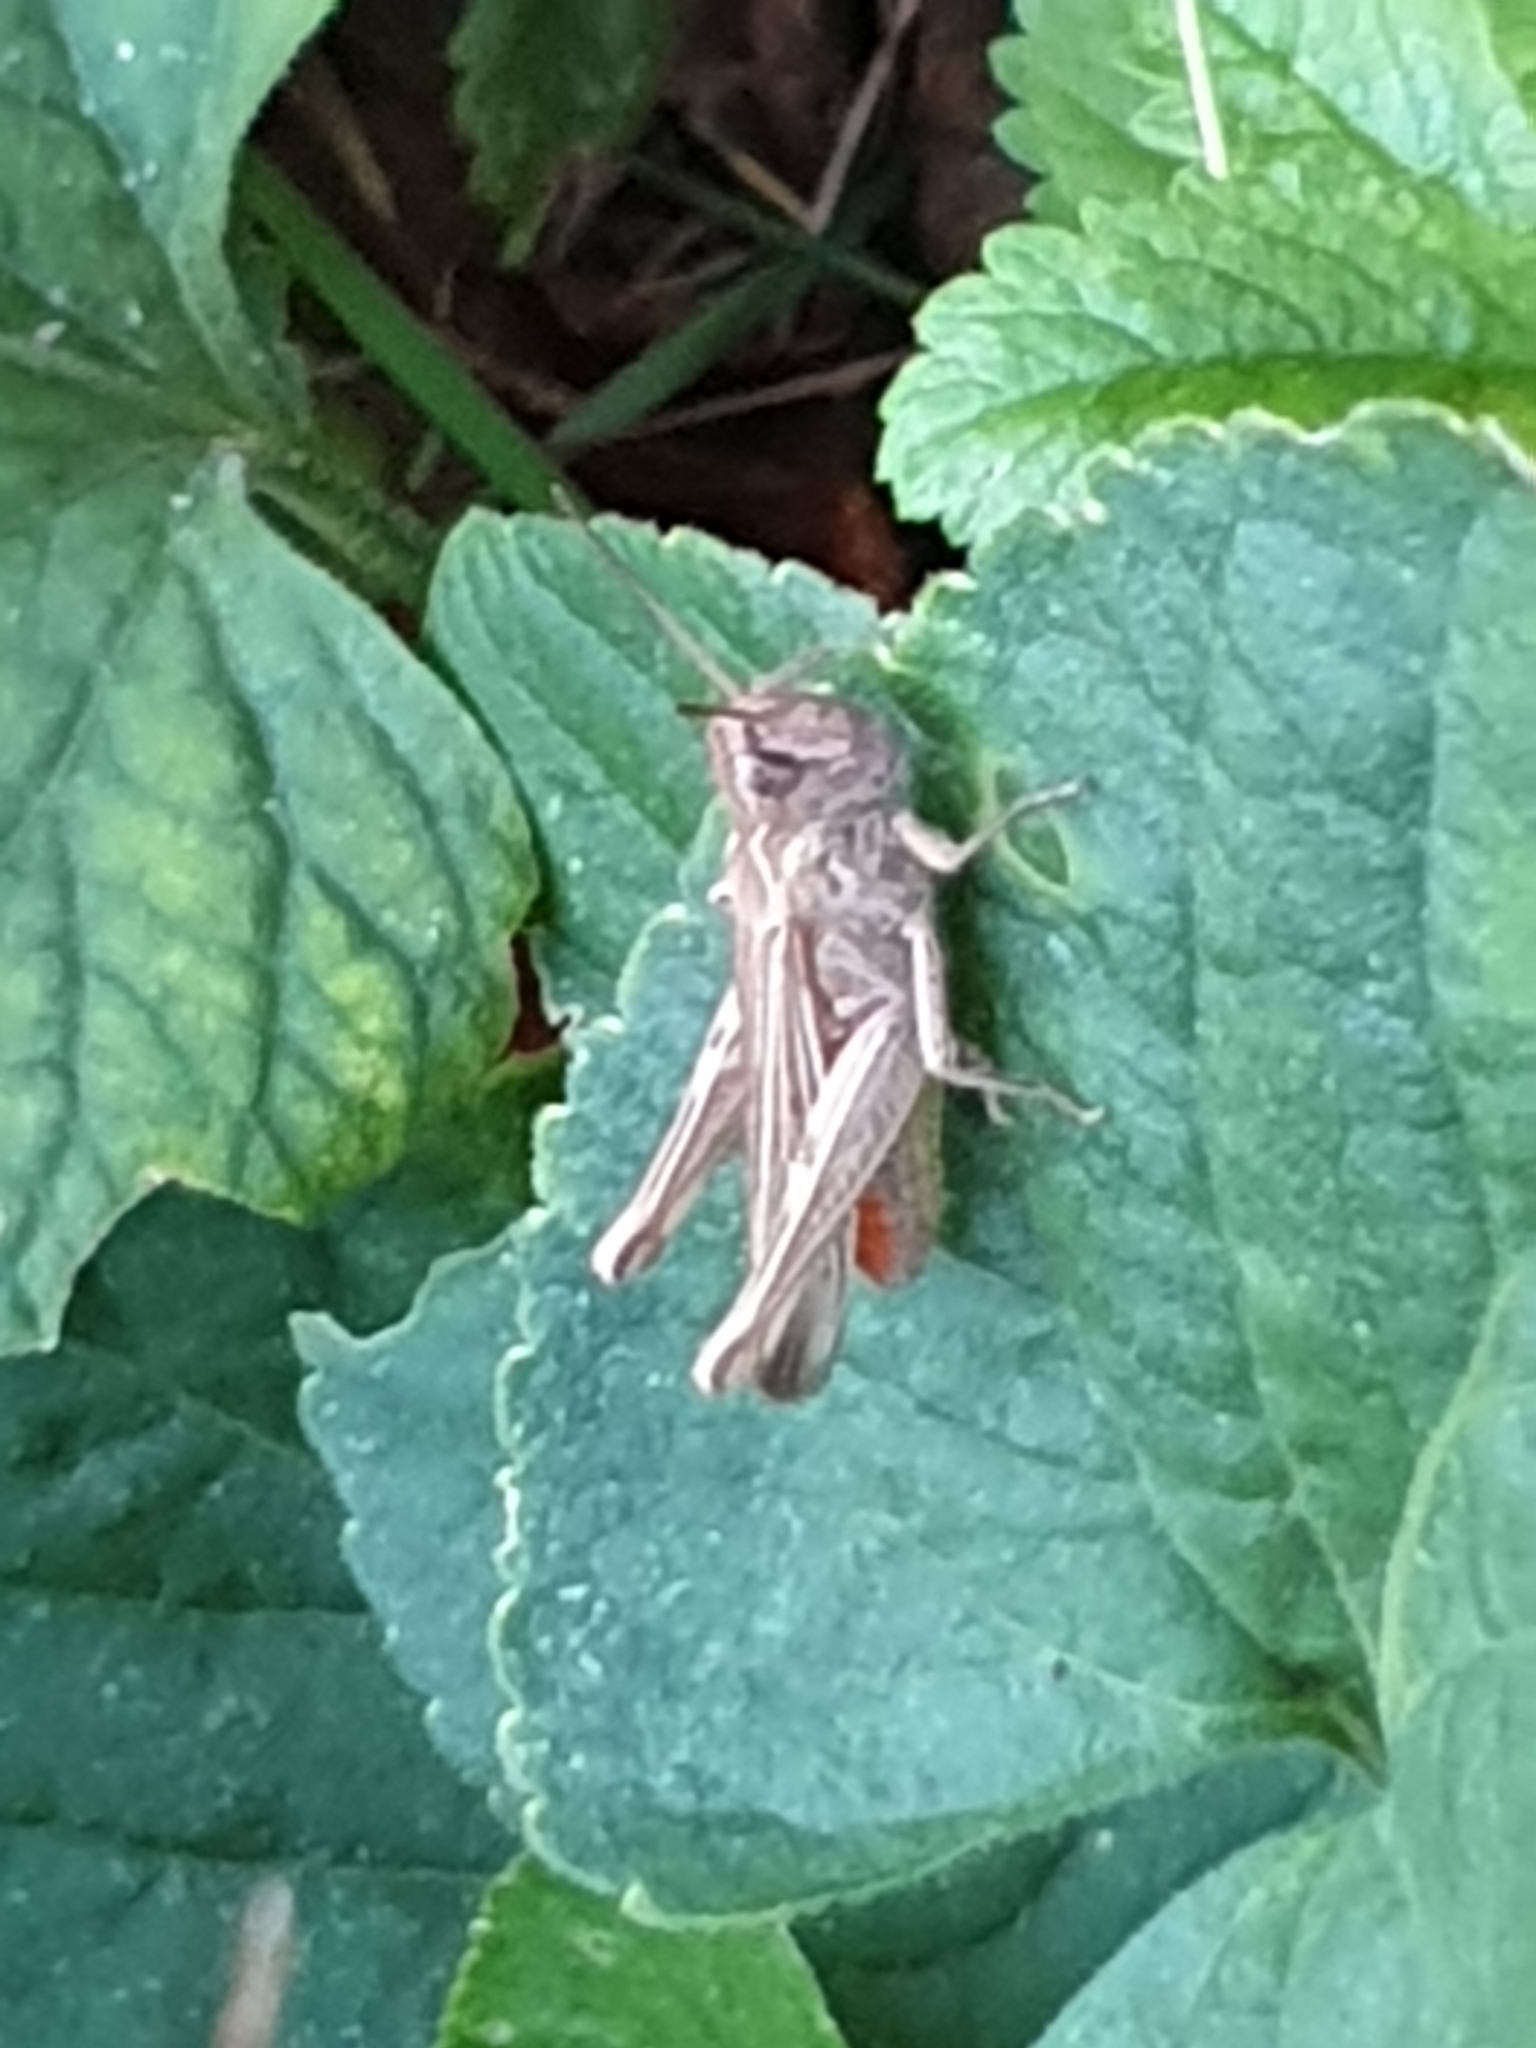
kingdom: Animalia
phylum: Arthropoda
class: Insecta
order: Orthoptera
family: Acrididae
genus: Chorthippus
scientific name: Chorthippus brunneus
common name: Field grasshopper
